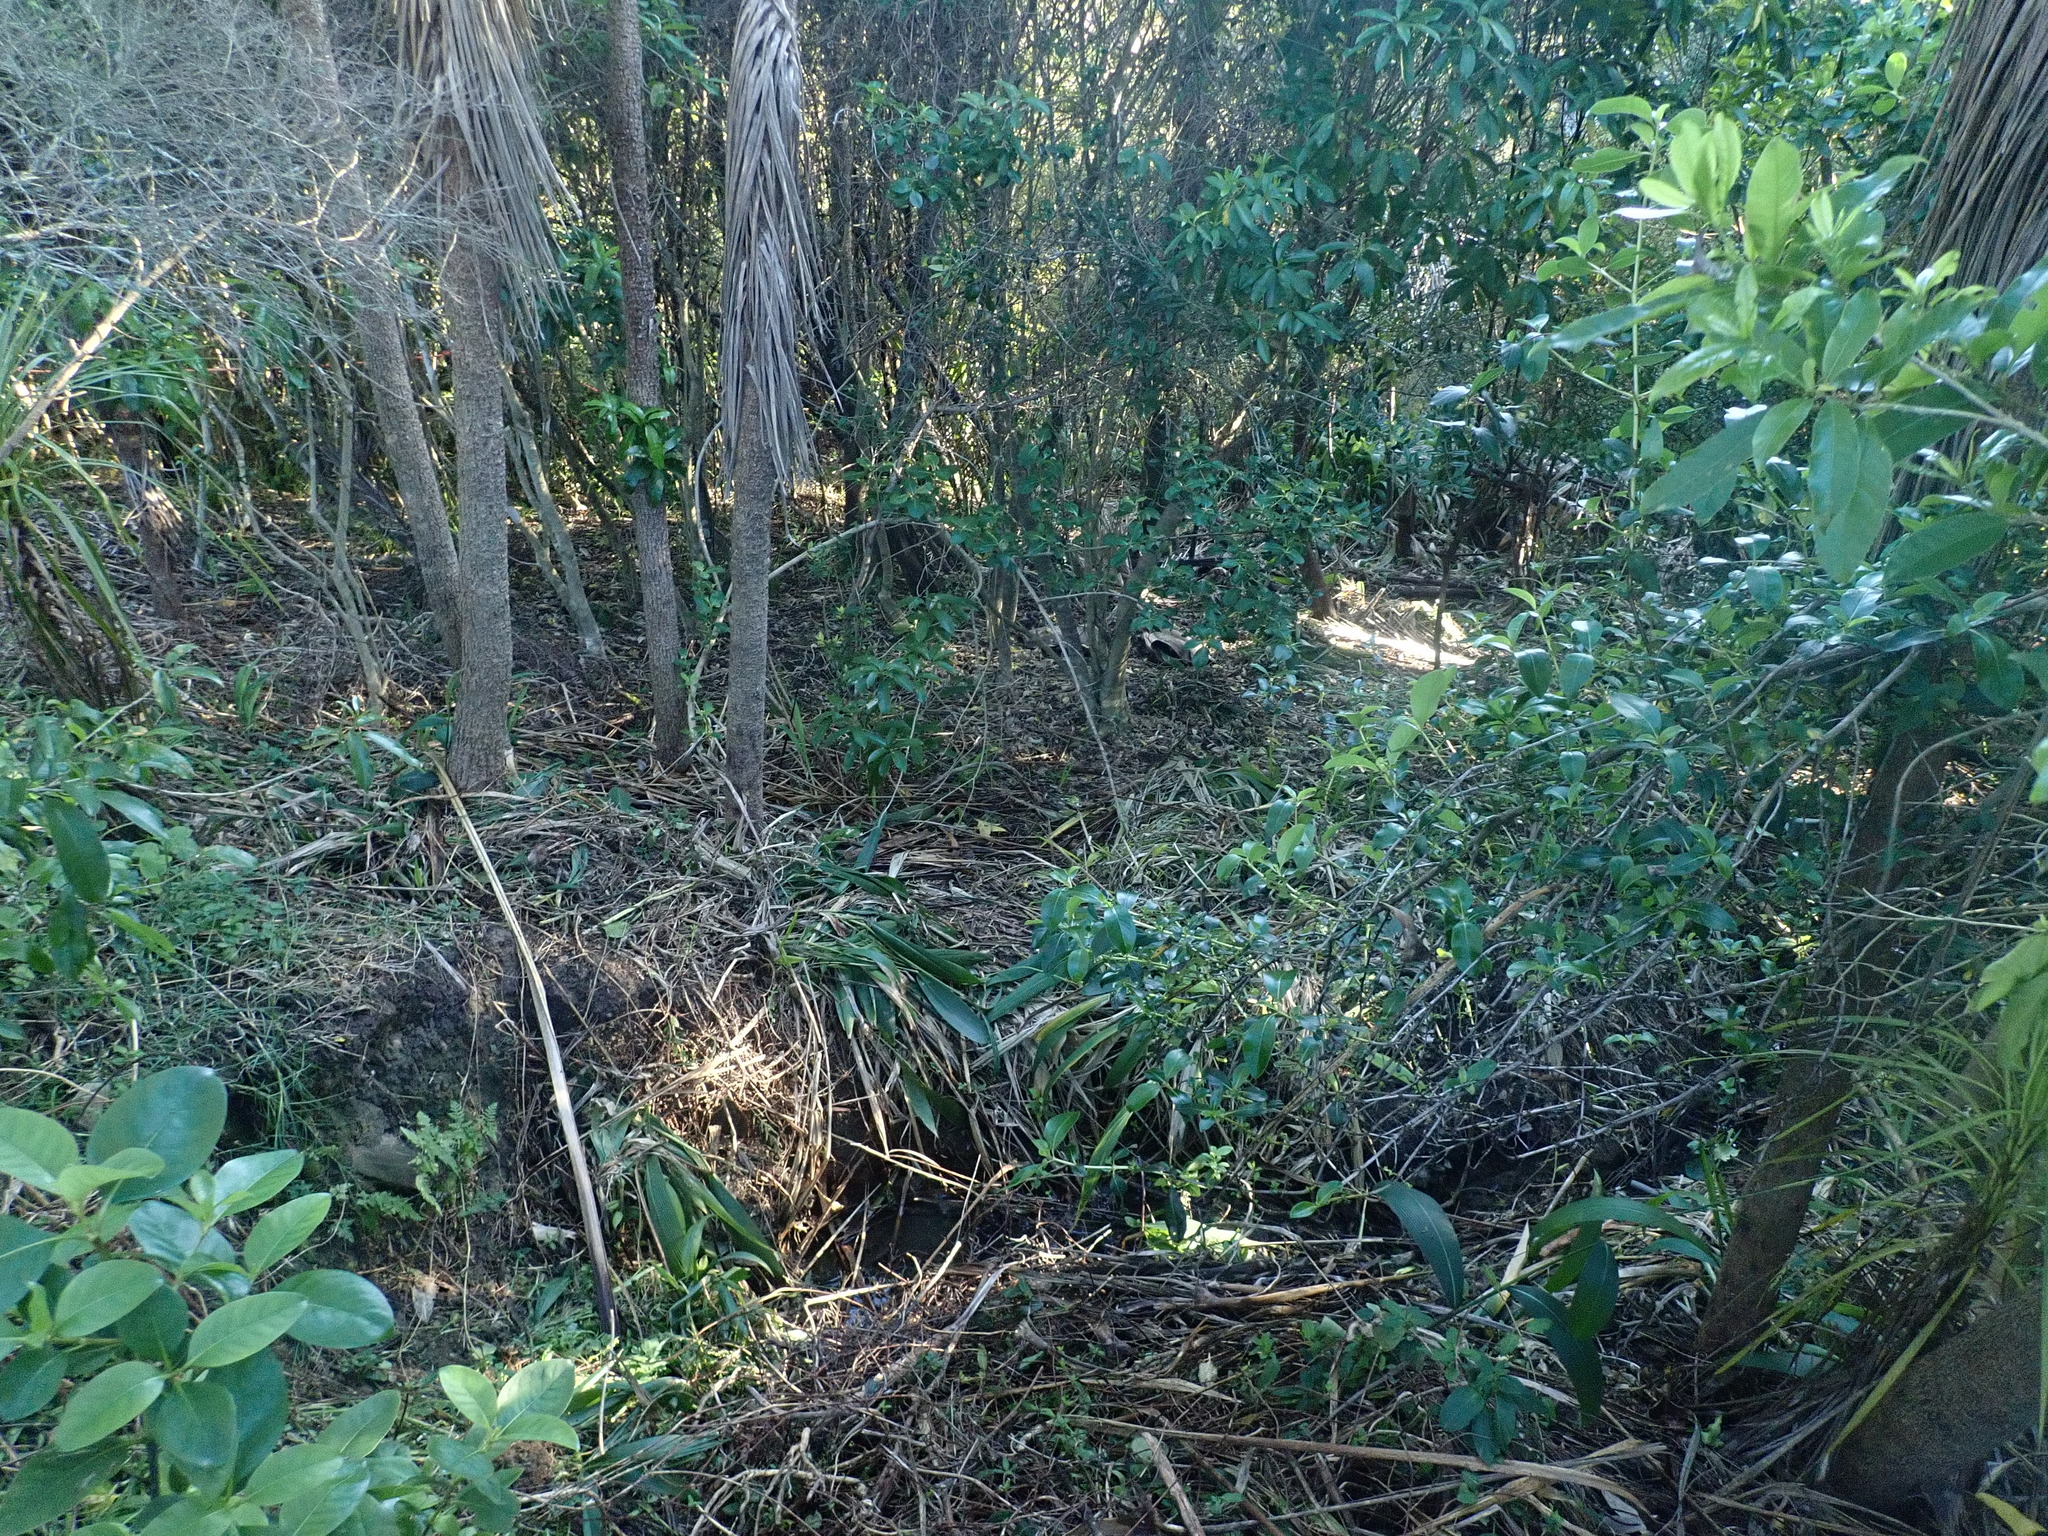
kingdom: Plantae
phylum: Tracheophyta
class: Liliopsida
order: Asparagales
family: Asparagaceae
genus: Cordyline
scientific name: Cordyline australis
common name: Cabbage-palm
